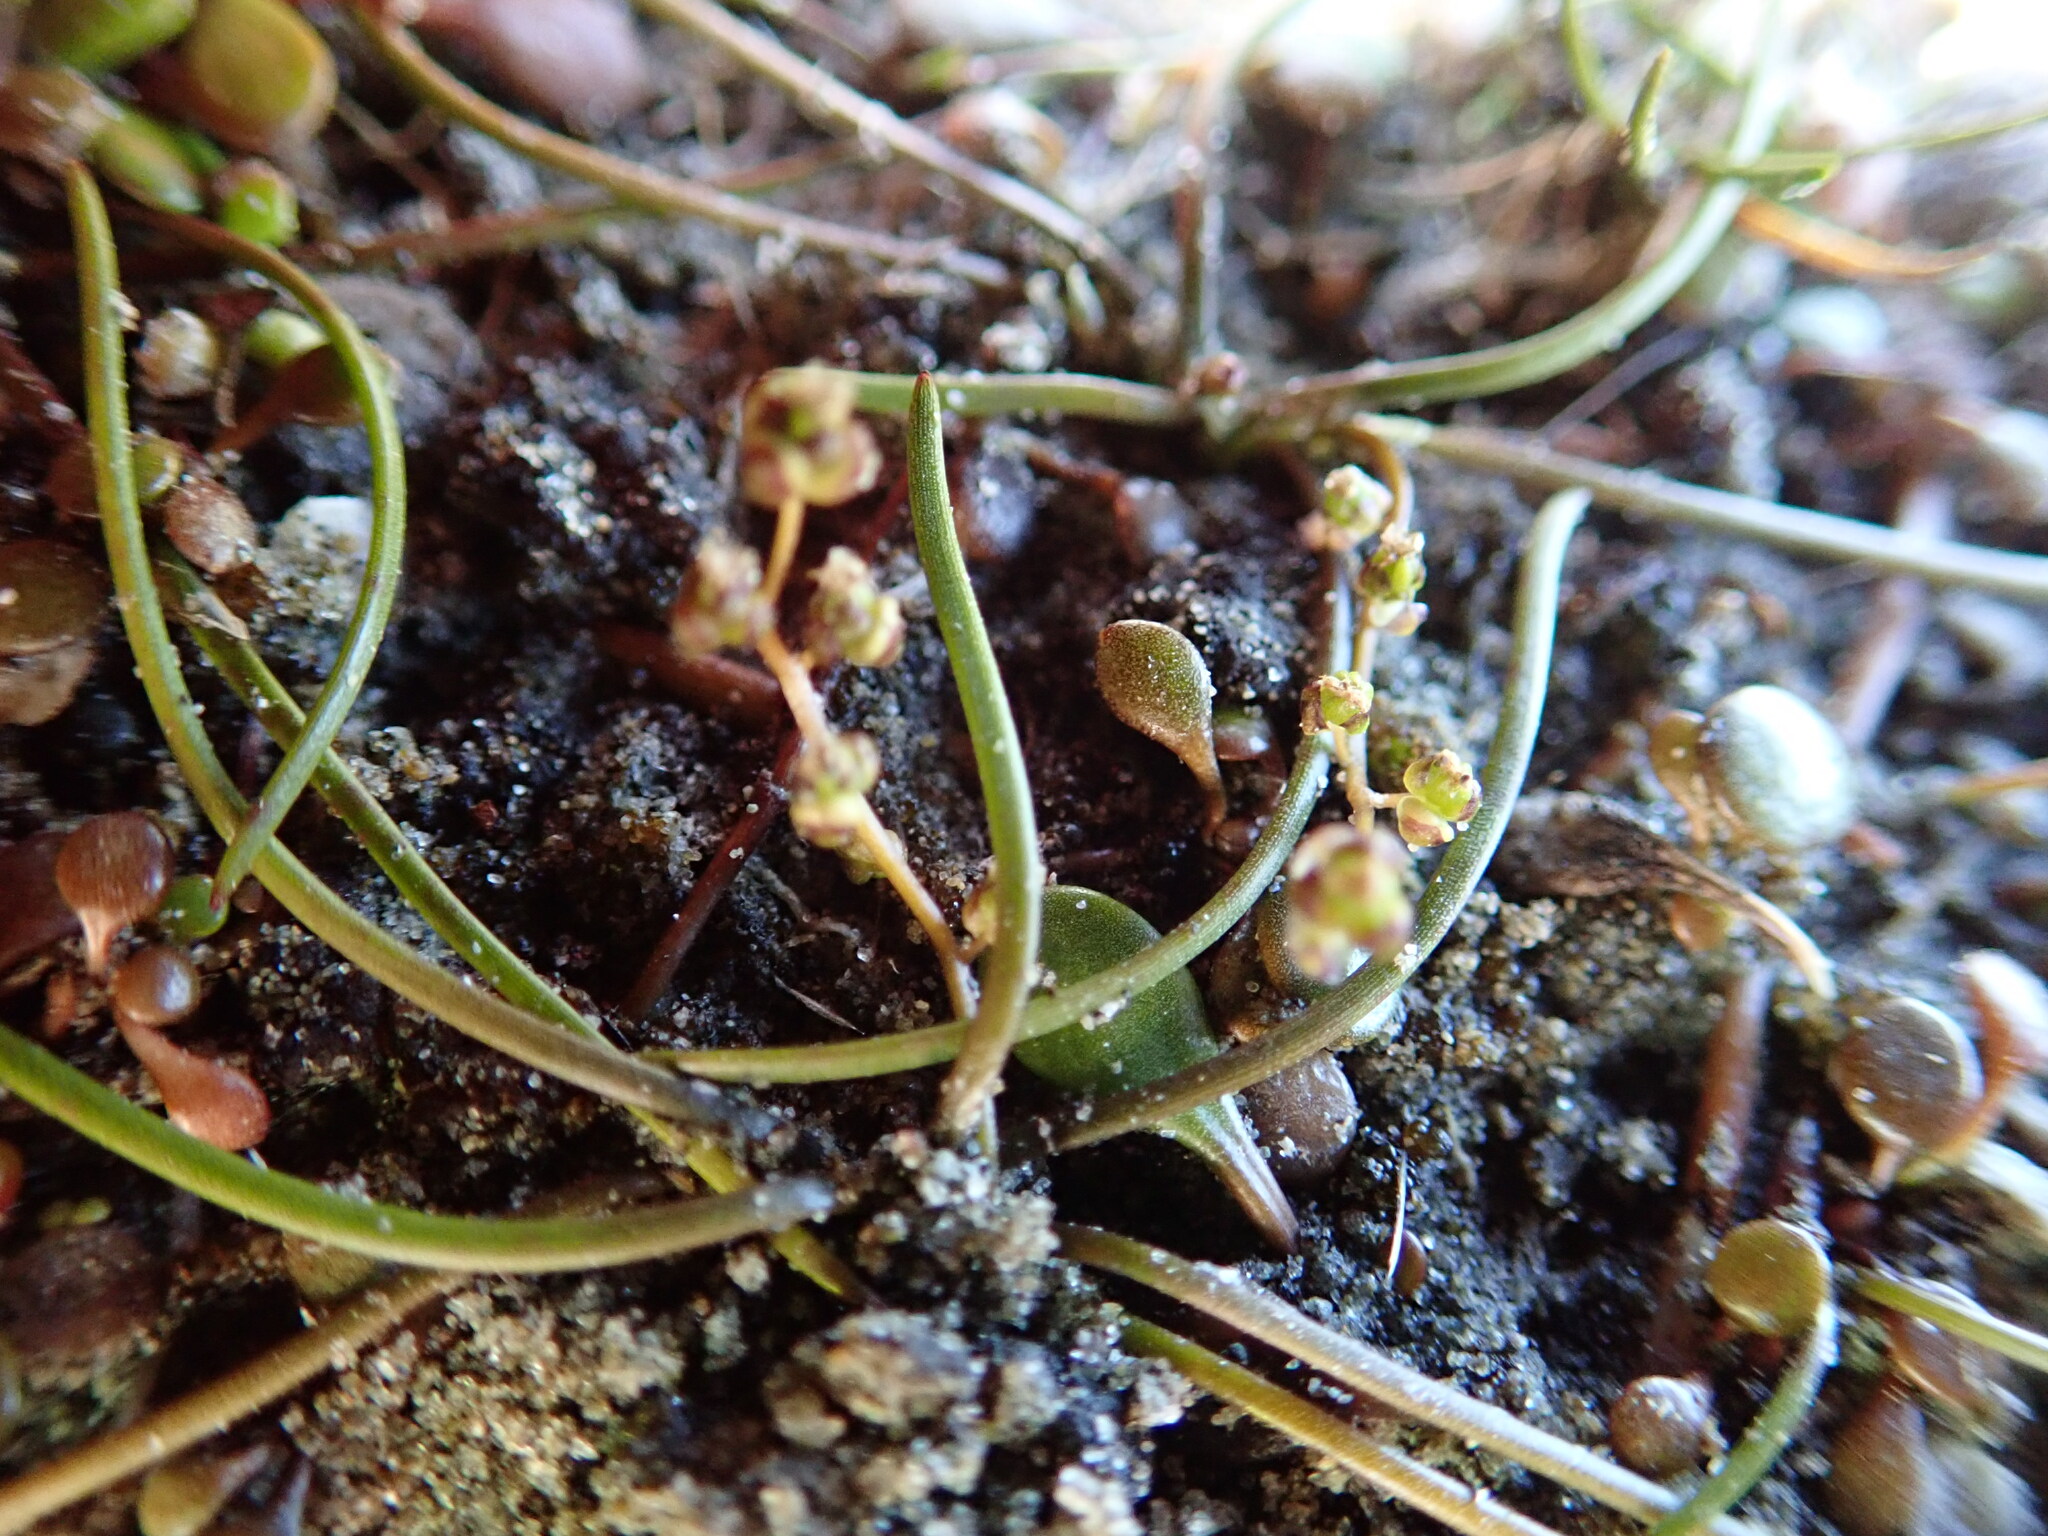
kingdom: Plantae
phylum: Tracheophyta
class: Liliopsida
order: Alismatales
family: Juncaginaceae
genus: Triglochin
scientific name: Triglochin striata
